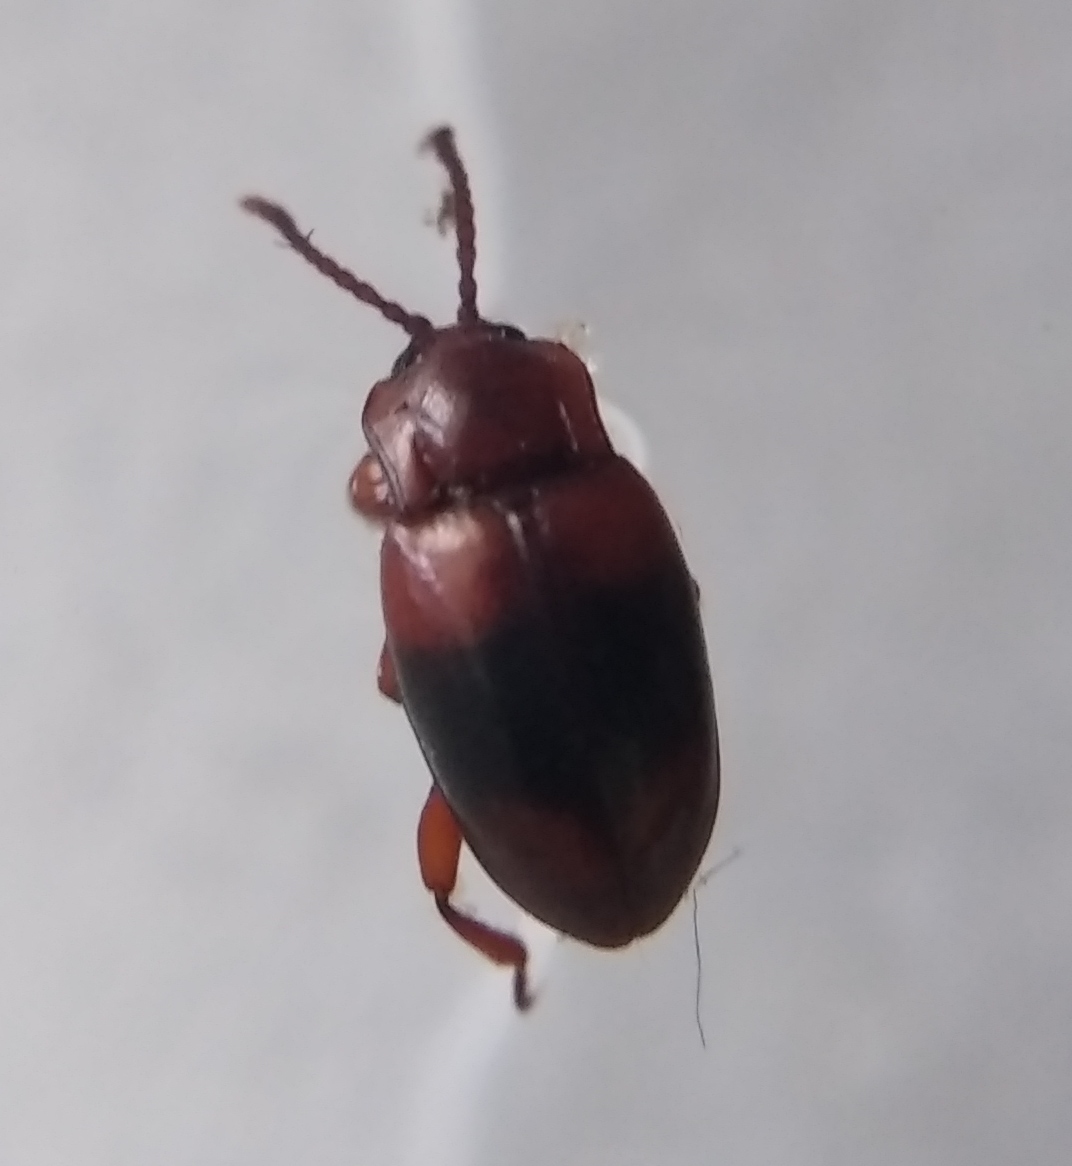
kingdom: Animalia
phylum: Arthropoda
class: Insecta
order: Coleoptera
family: Endomychidae
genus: Lycoperdina
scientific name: Lycoperdina succincta
